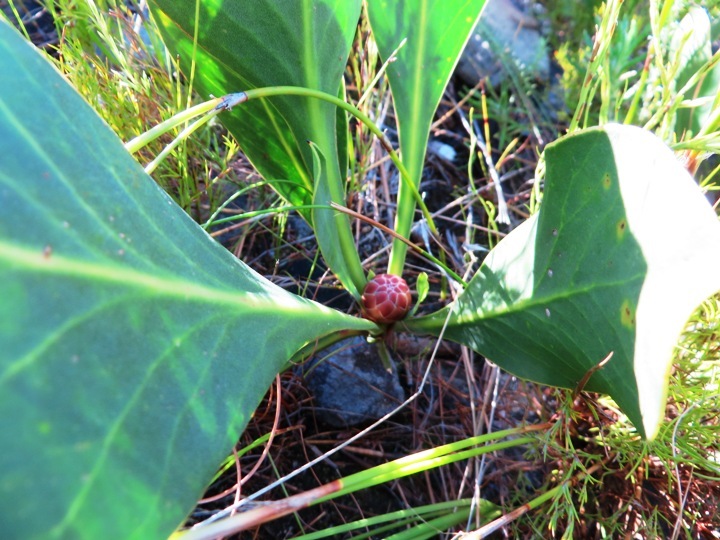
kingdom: Plantae
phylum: Tracheophyta
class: Magnoliopsida
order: Proteales
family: Proteaceae
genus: Protea
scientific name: Protea acaulos
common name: Common ground sugarbush
